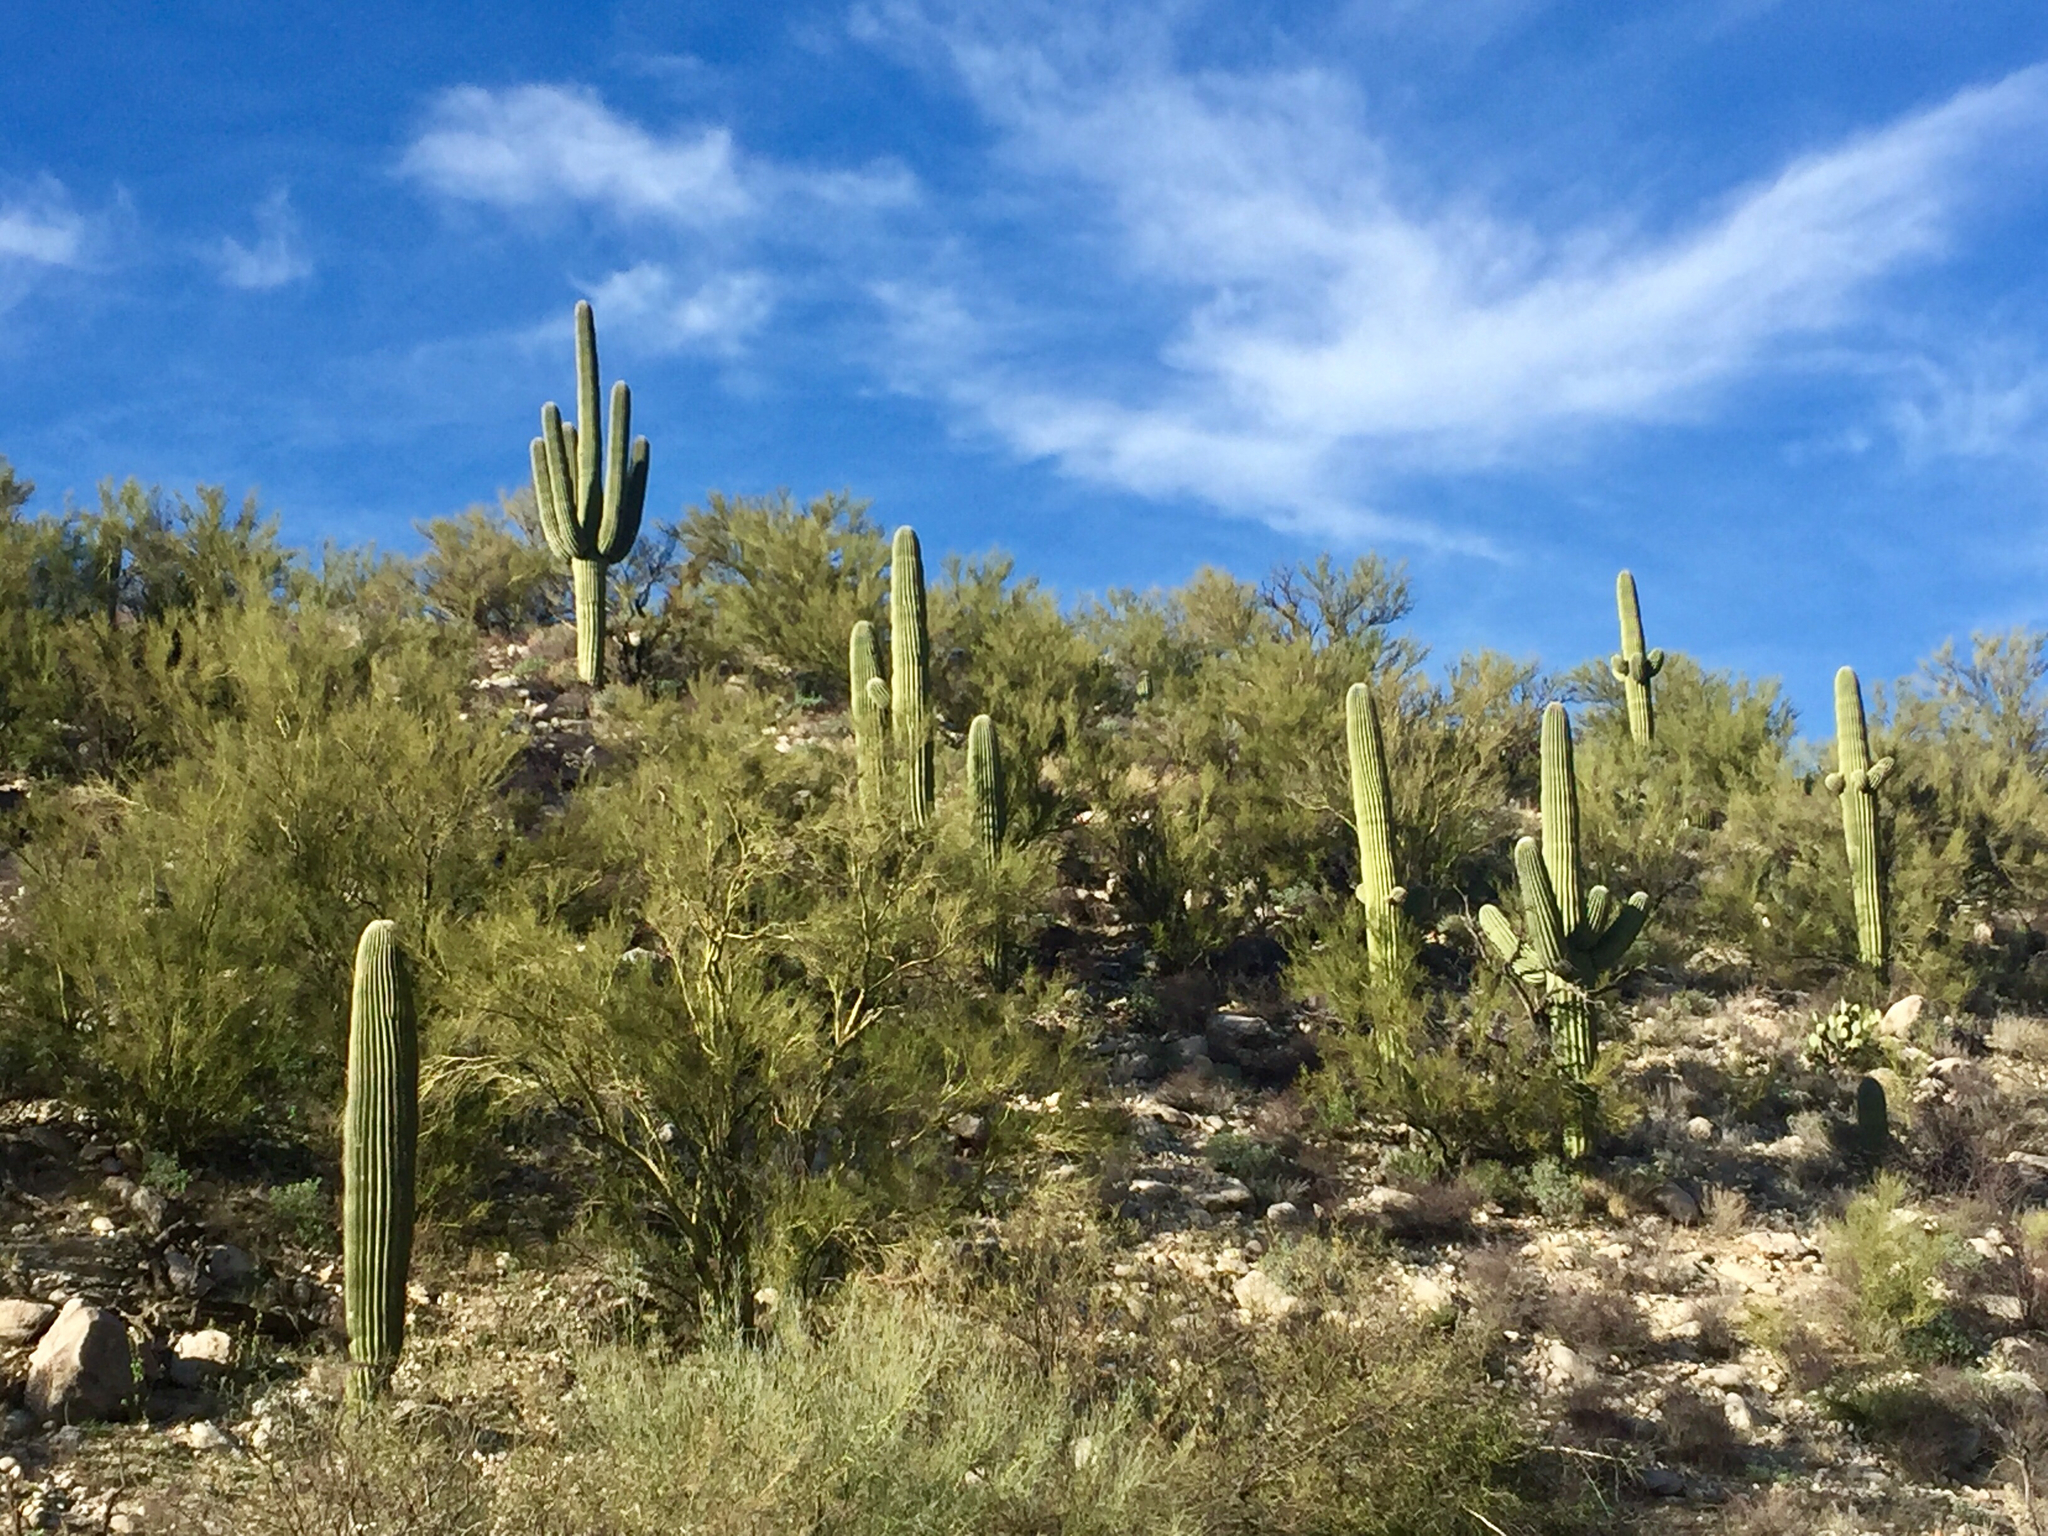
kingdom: Plantae
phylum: Tracheophyta
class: Magnoliopsida
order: Caryophyllales
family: Cactaceae
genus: Carnegiea
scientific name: Carnegiea gigantea
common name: Saguaro
